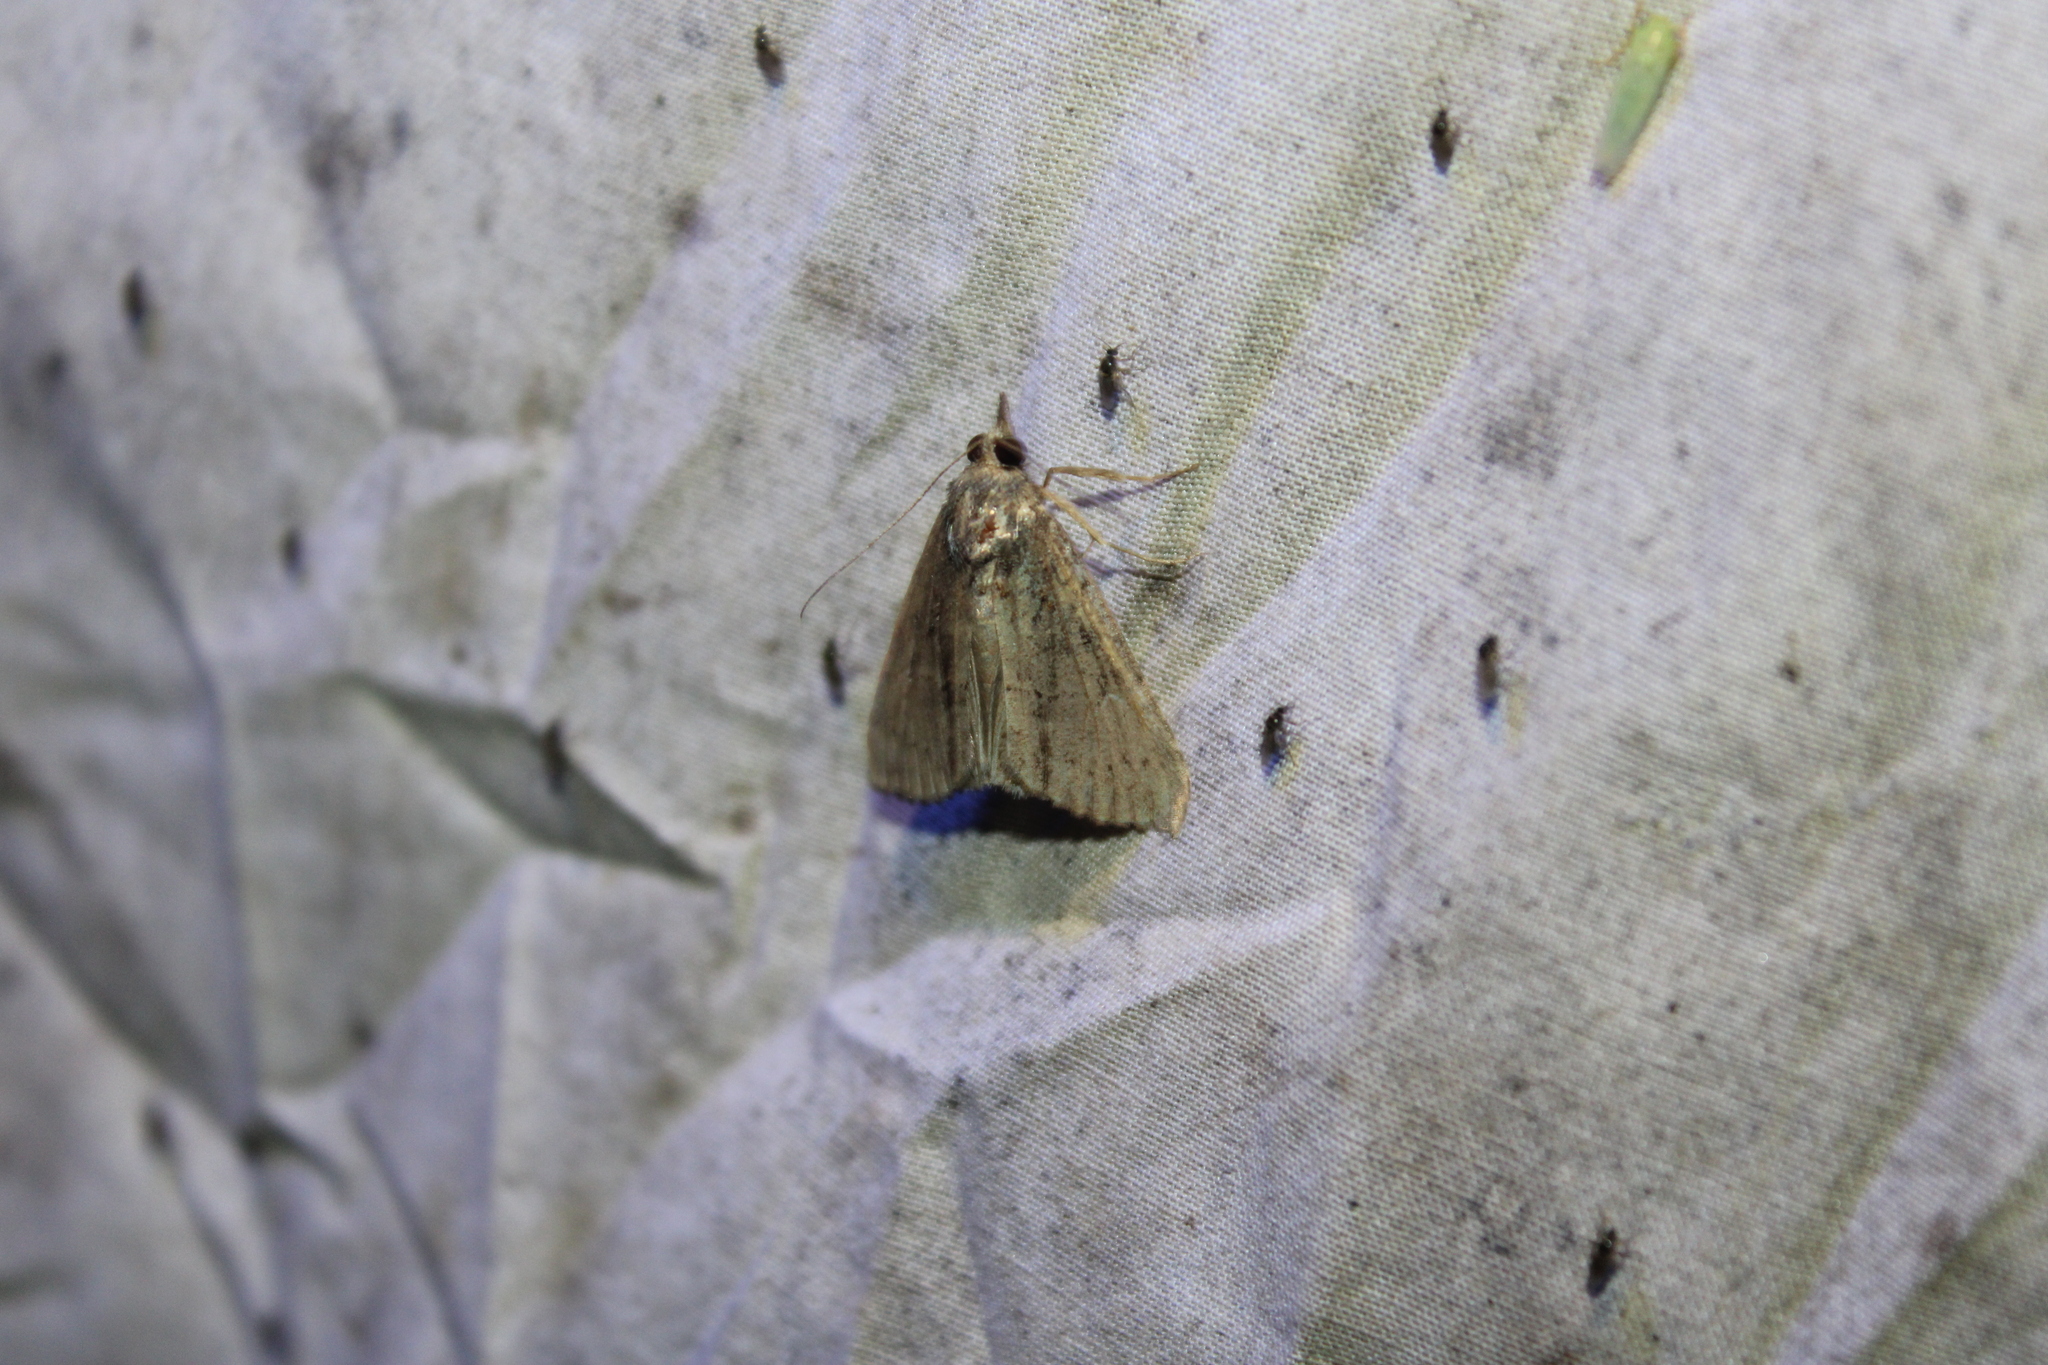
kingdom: Animalia
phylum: Arthropoda
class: Insecta
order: Lepidoptera
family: Erebidae
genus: Hypena
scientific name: Hypena scabra
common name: Green cloverworm
